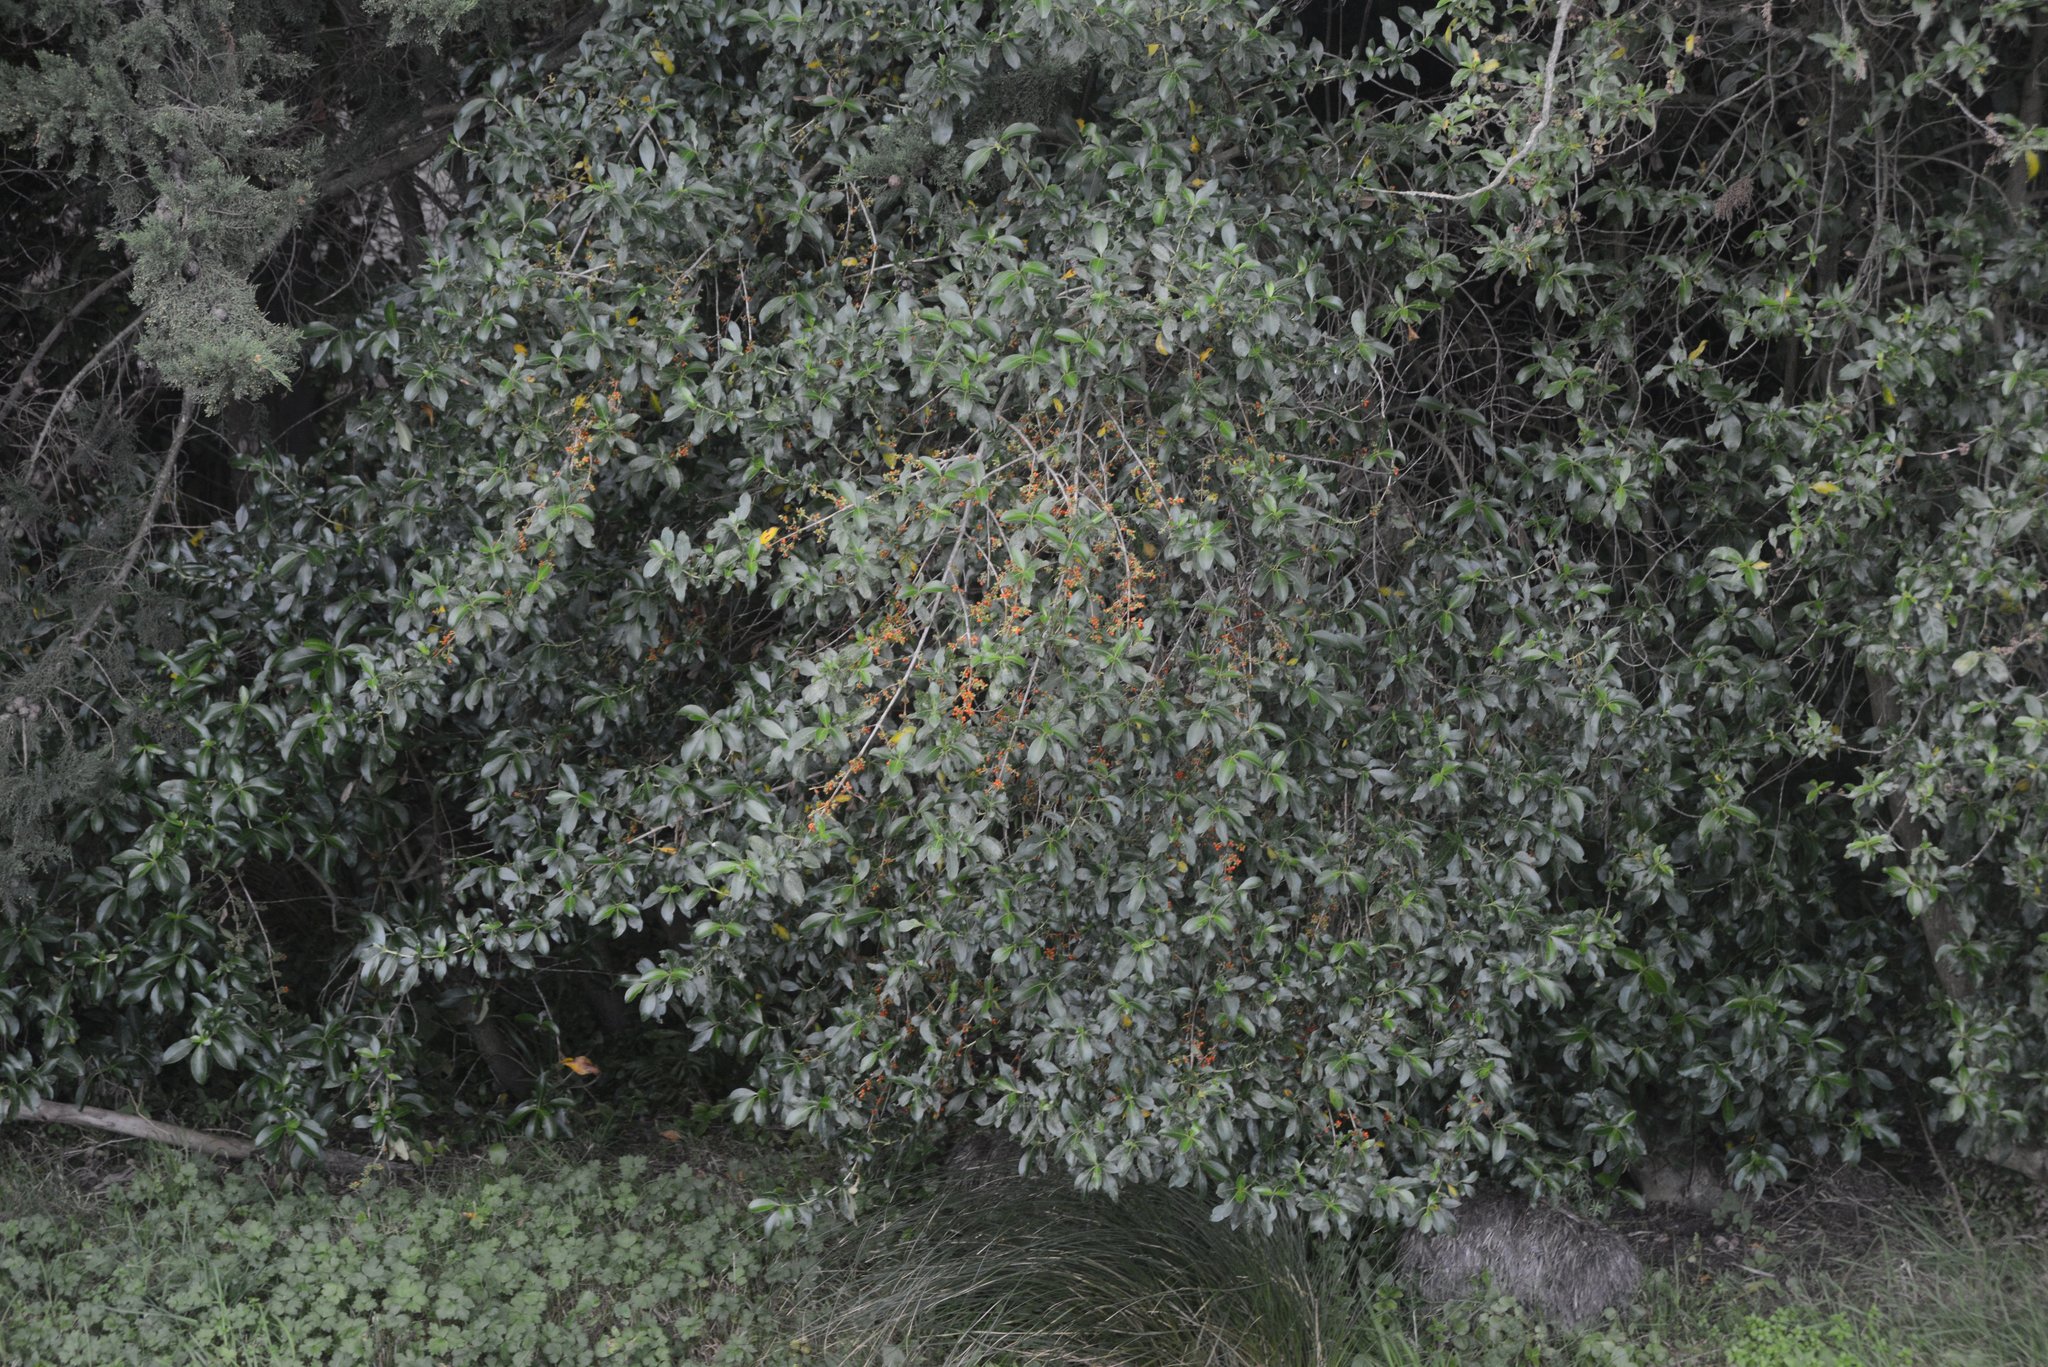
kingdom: Plantae
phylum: Tracheophyta
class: Magnoliopsida
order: Gentianales
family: Rubiaceae
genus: Coprosma
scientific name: Coprosma robusta
